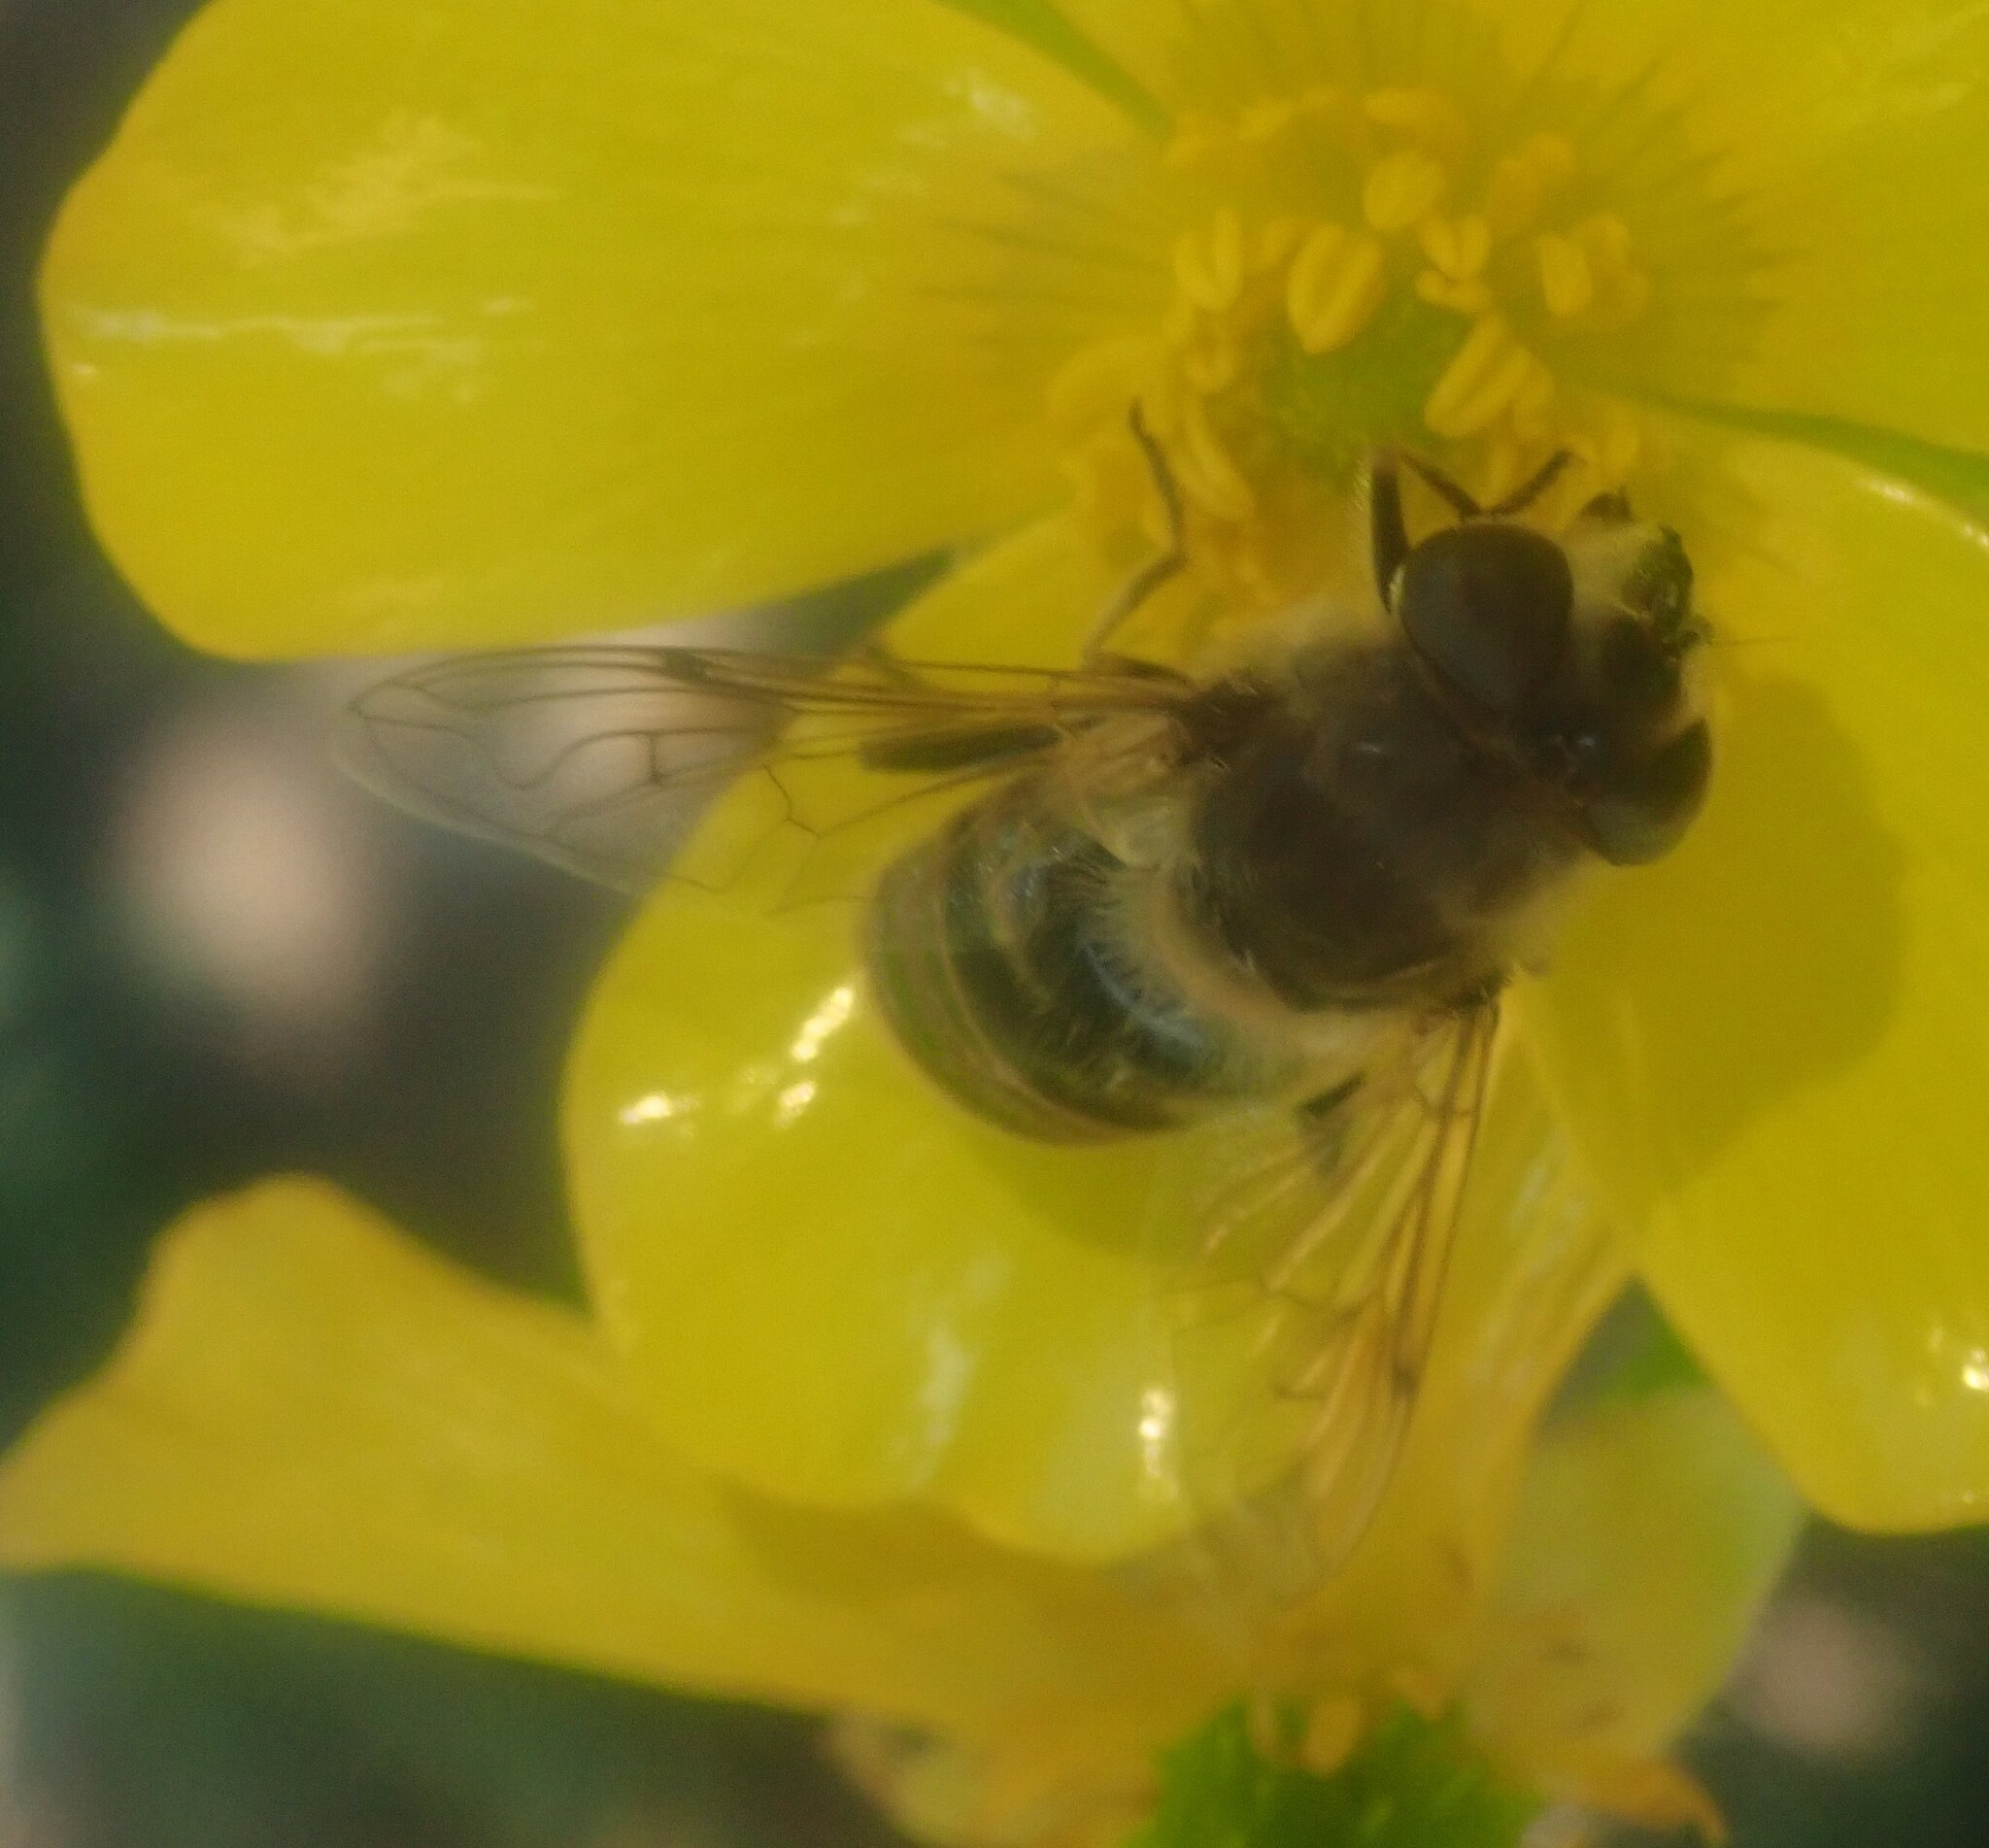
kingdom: Animalia
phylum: Arthropoda
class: Insecta
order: Diptera
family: Syrphidae
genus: Eristalis
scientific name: Eristalis tenax
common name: Drone fly
